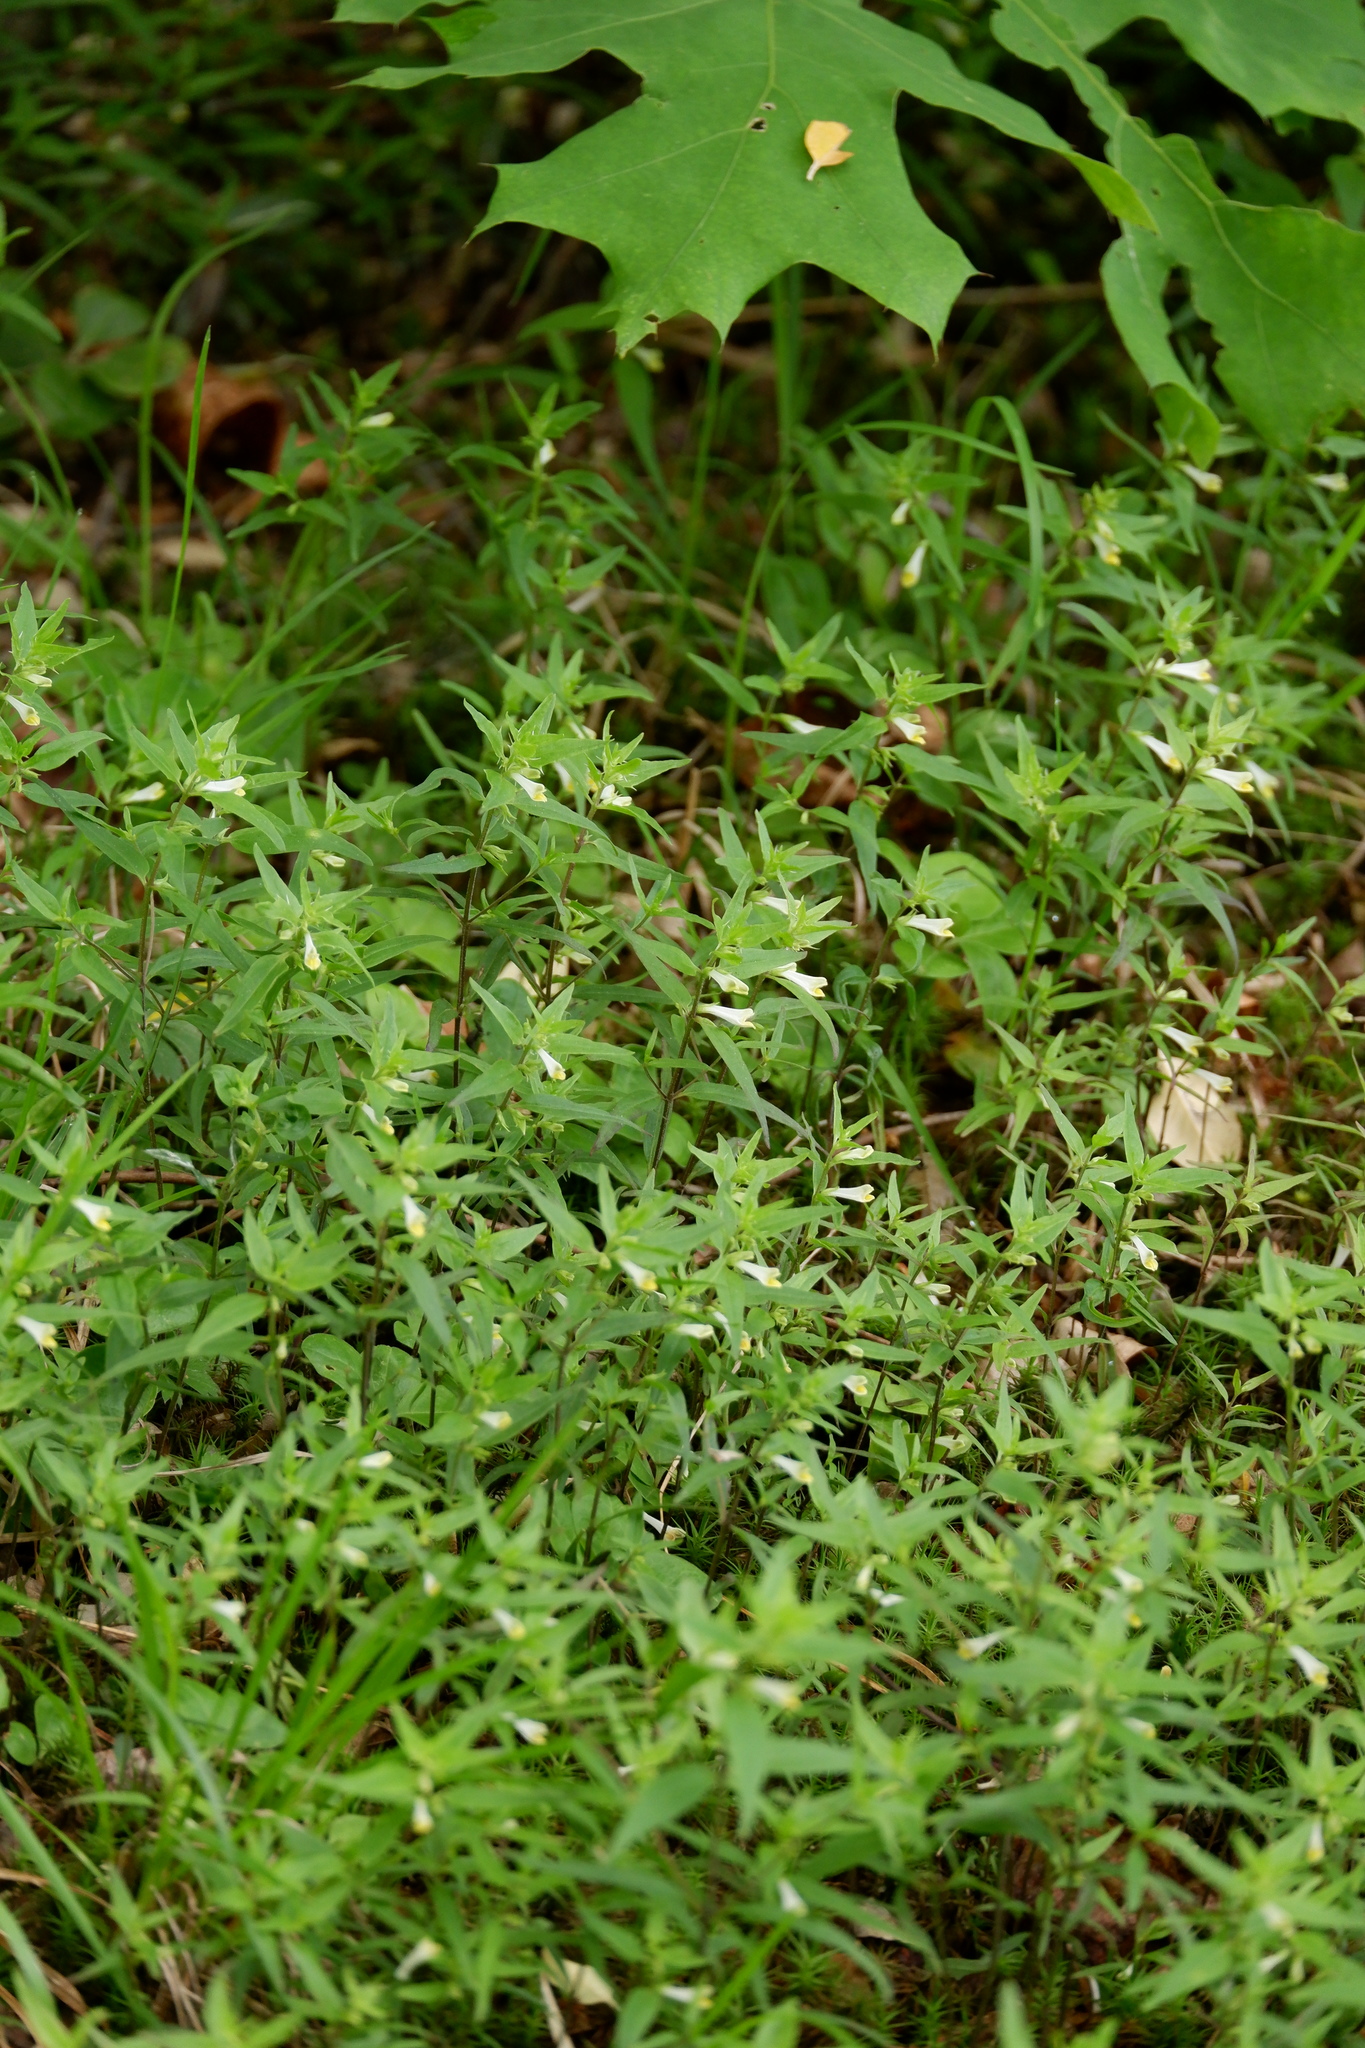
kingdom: Plantae
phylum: Tracheophyta
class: Magnoliopsida
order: Lamiales
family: Orobanchaceae
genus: Melampyrum
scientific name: Melampyrum lineare
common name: American cow-wheat
